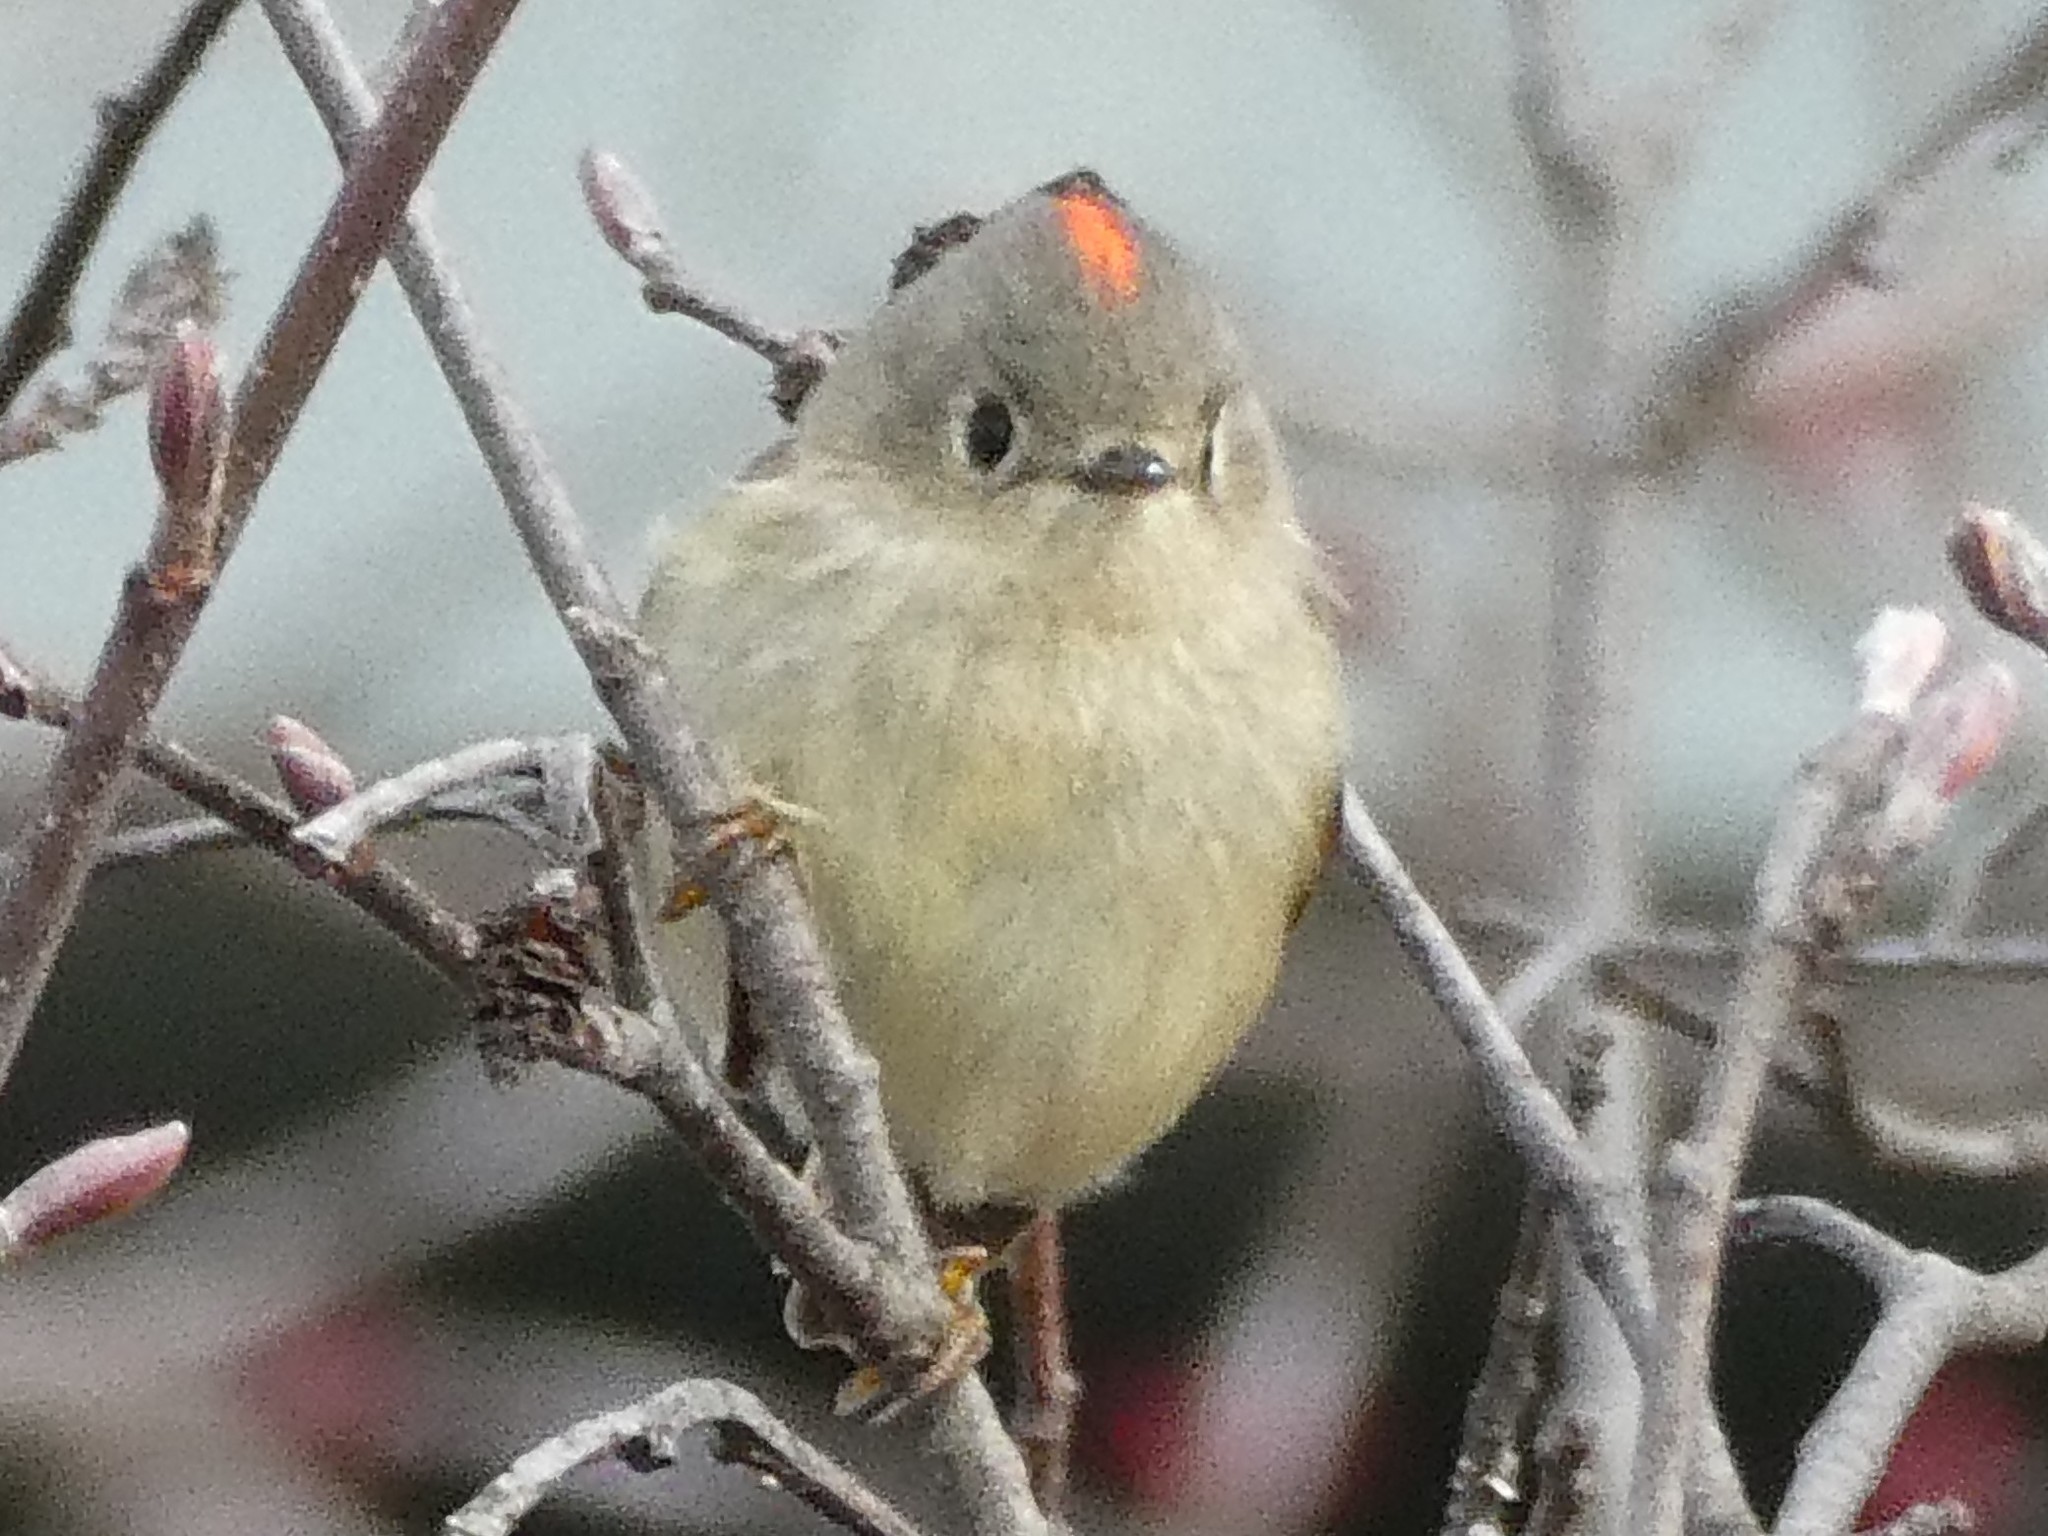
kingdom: Animalia
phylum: Chordata
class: Aves
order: Passeriformes
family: Regulidae
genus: Regulus
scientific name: Regulus calendula
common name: Ruby-crowned kinglet
